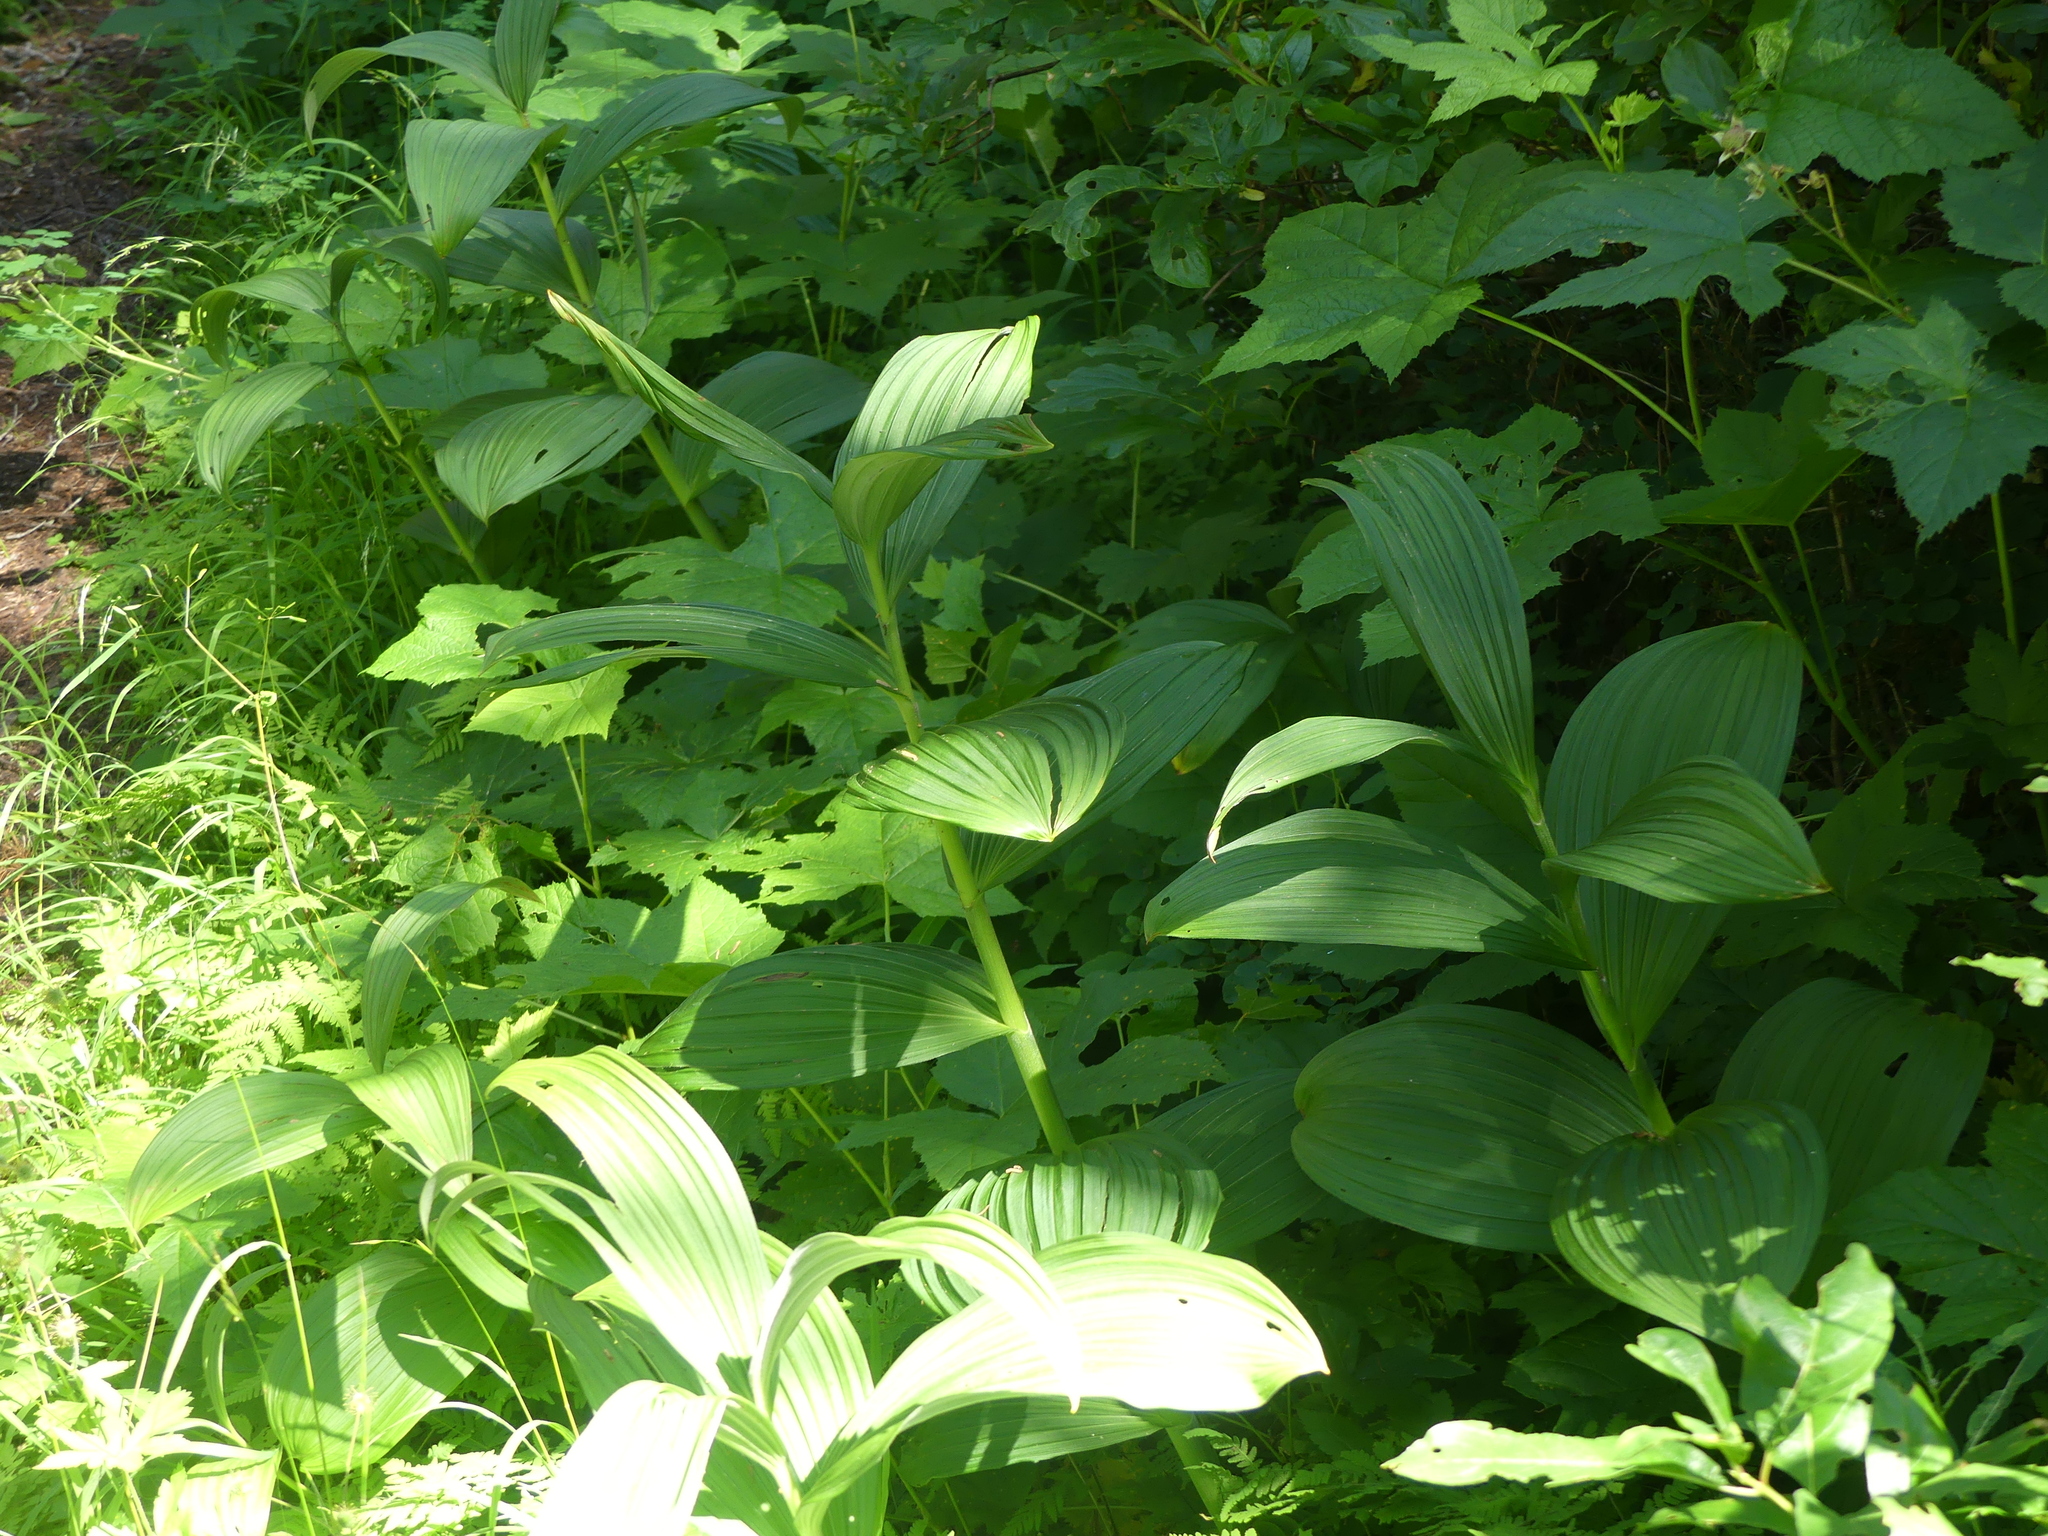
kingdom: Plantae
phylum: Tracheophyta
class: Liliopsida
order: Liliales
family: Melanthiaceae
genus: Veratrum
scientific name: Veratrum viride
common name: American false hellebore
